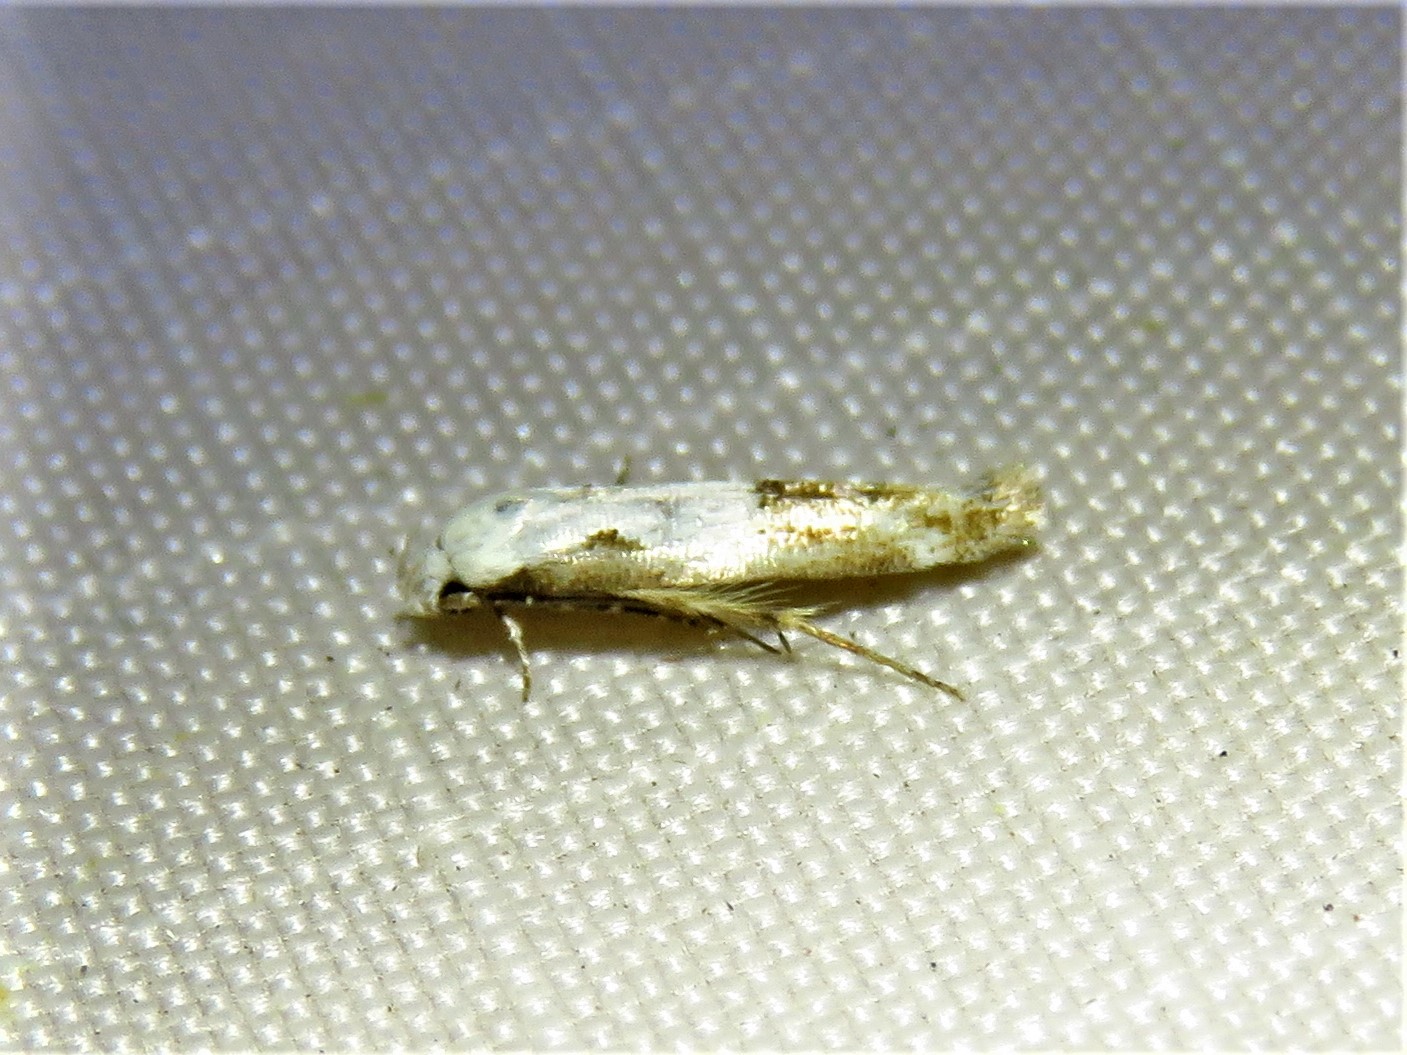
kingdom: Animalia
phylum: Arthropoda
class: Insecta
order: Lepidoptera
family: Momphidae
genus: Mompha
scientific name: Mompha circumscriptella
